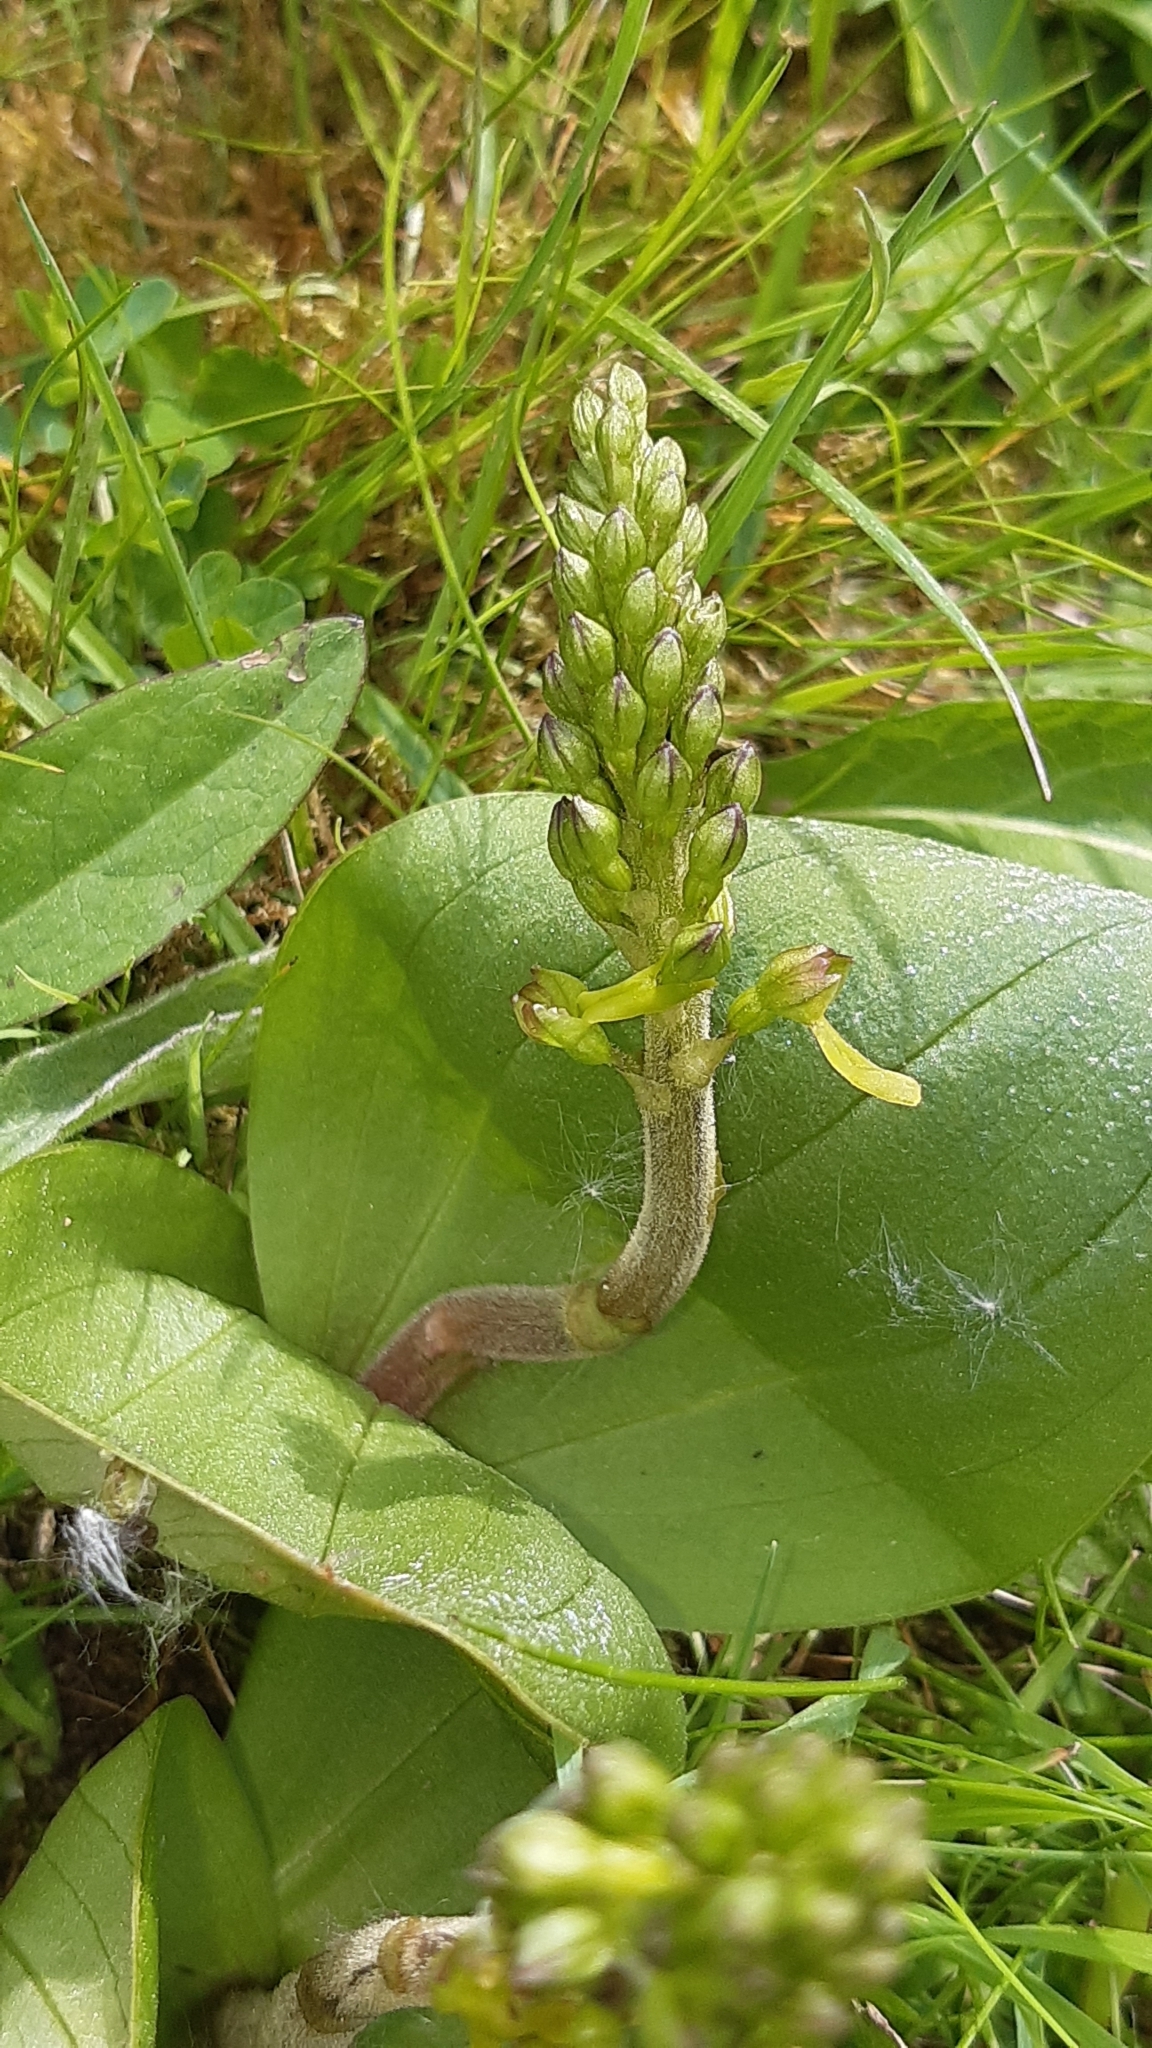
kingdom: Plantae
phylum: Tracheophyta
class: Liliopsida
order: Asparagales
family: Orchidaceae
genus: Neottia
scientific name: Neottia ovata
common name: Common twayblade
